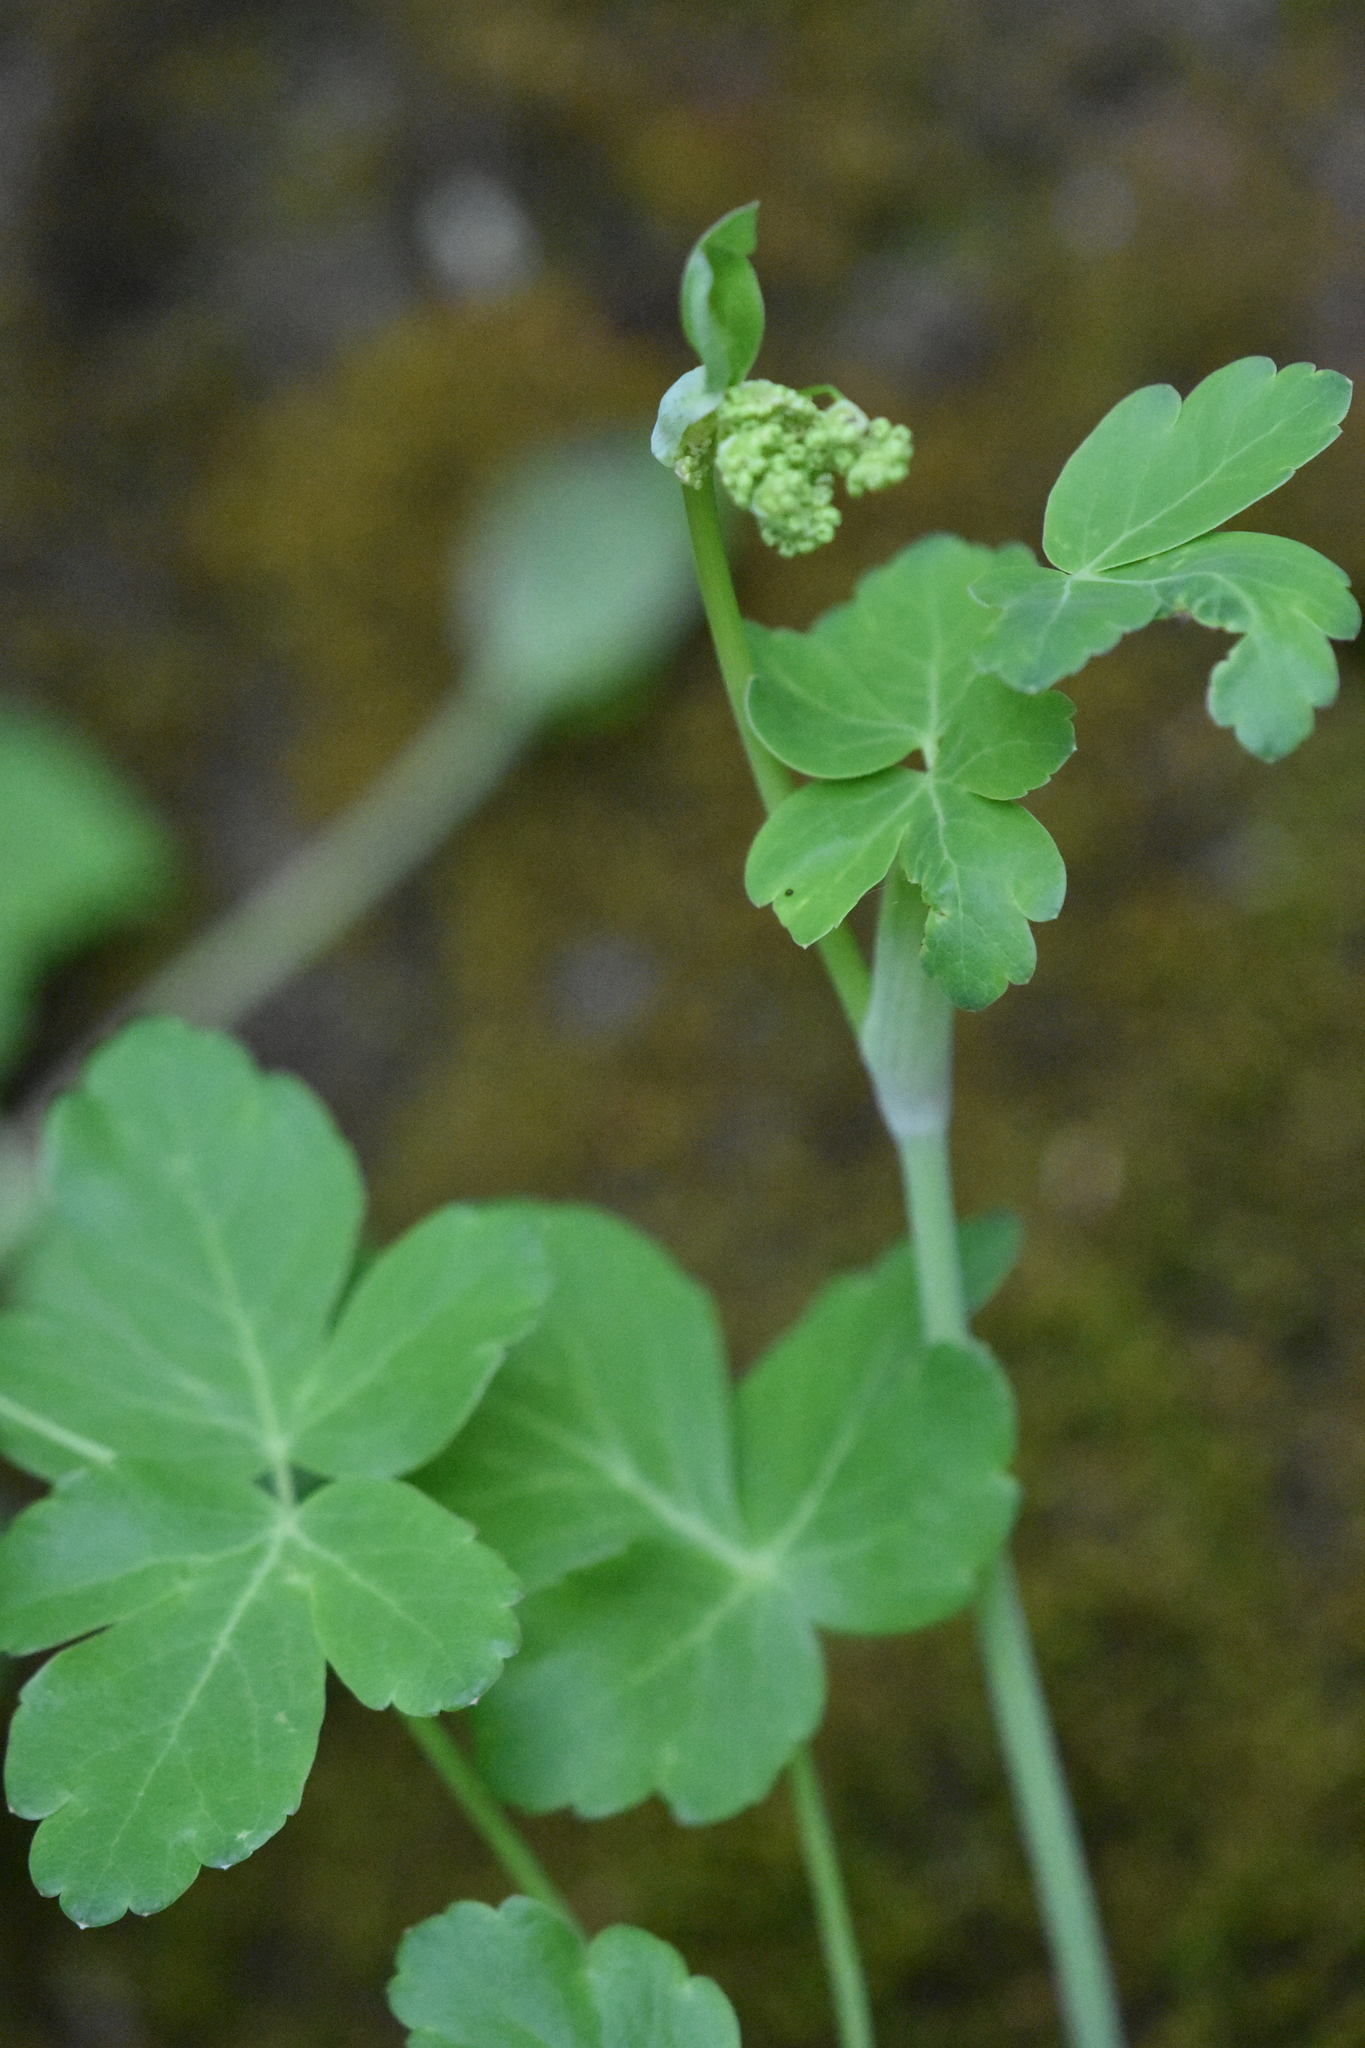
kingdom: Plantae
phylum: Tracheophyta
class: Magnoliopsida
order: Apiales
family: Apiaceae
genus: Laser
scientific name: Laser trilobum
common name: Laser
